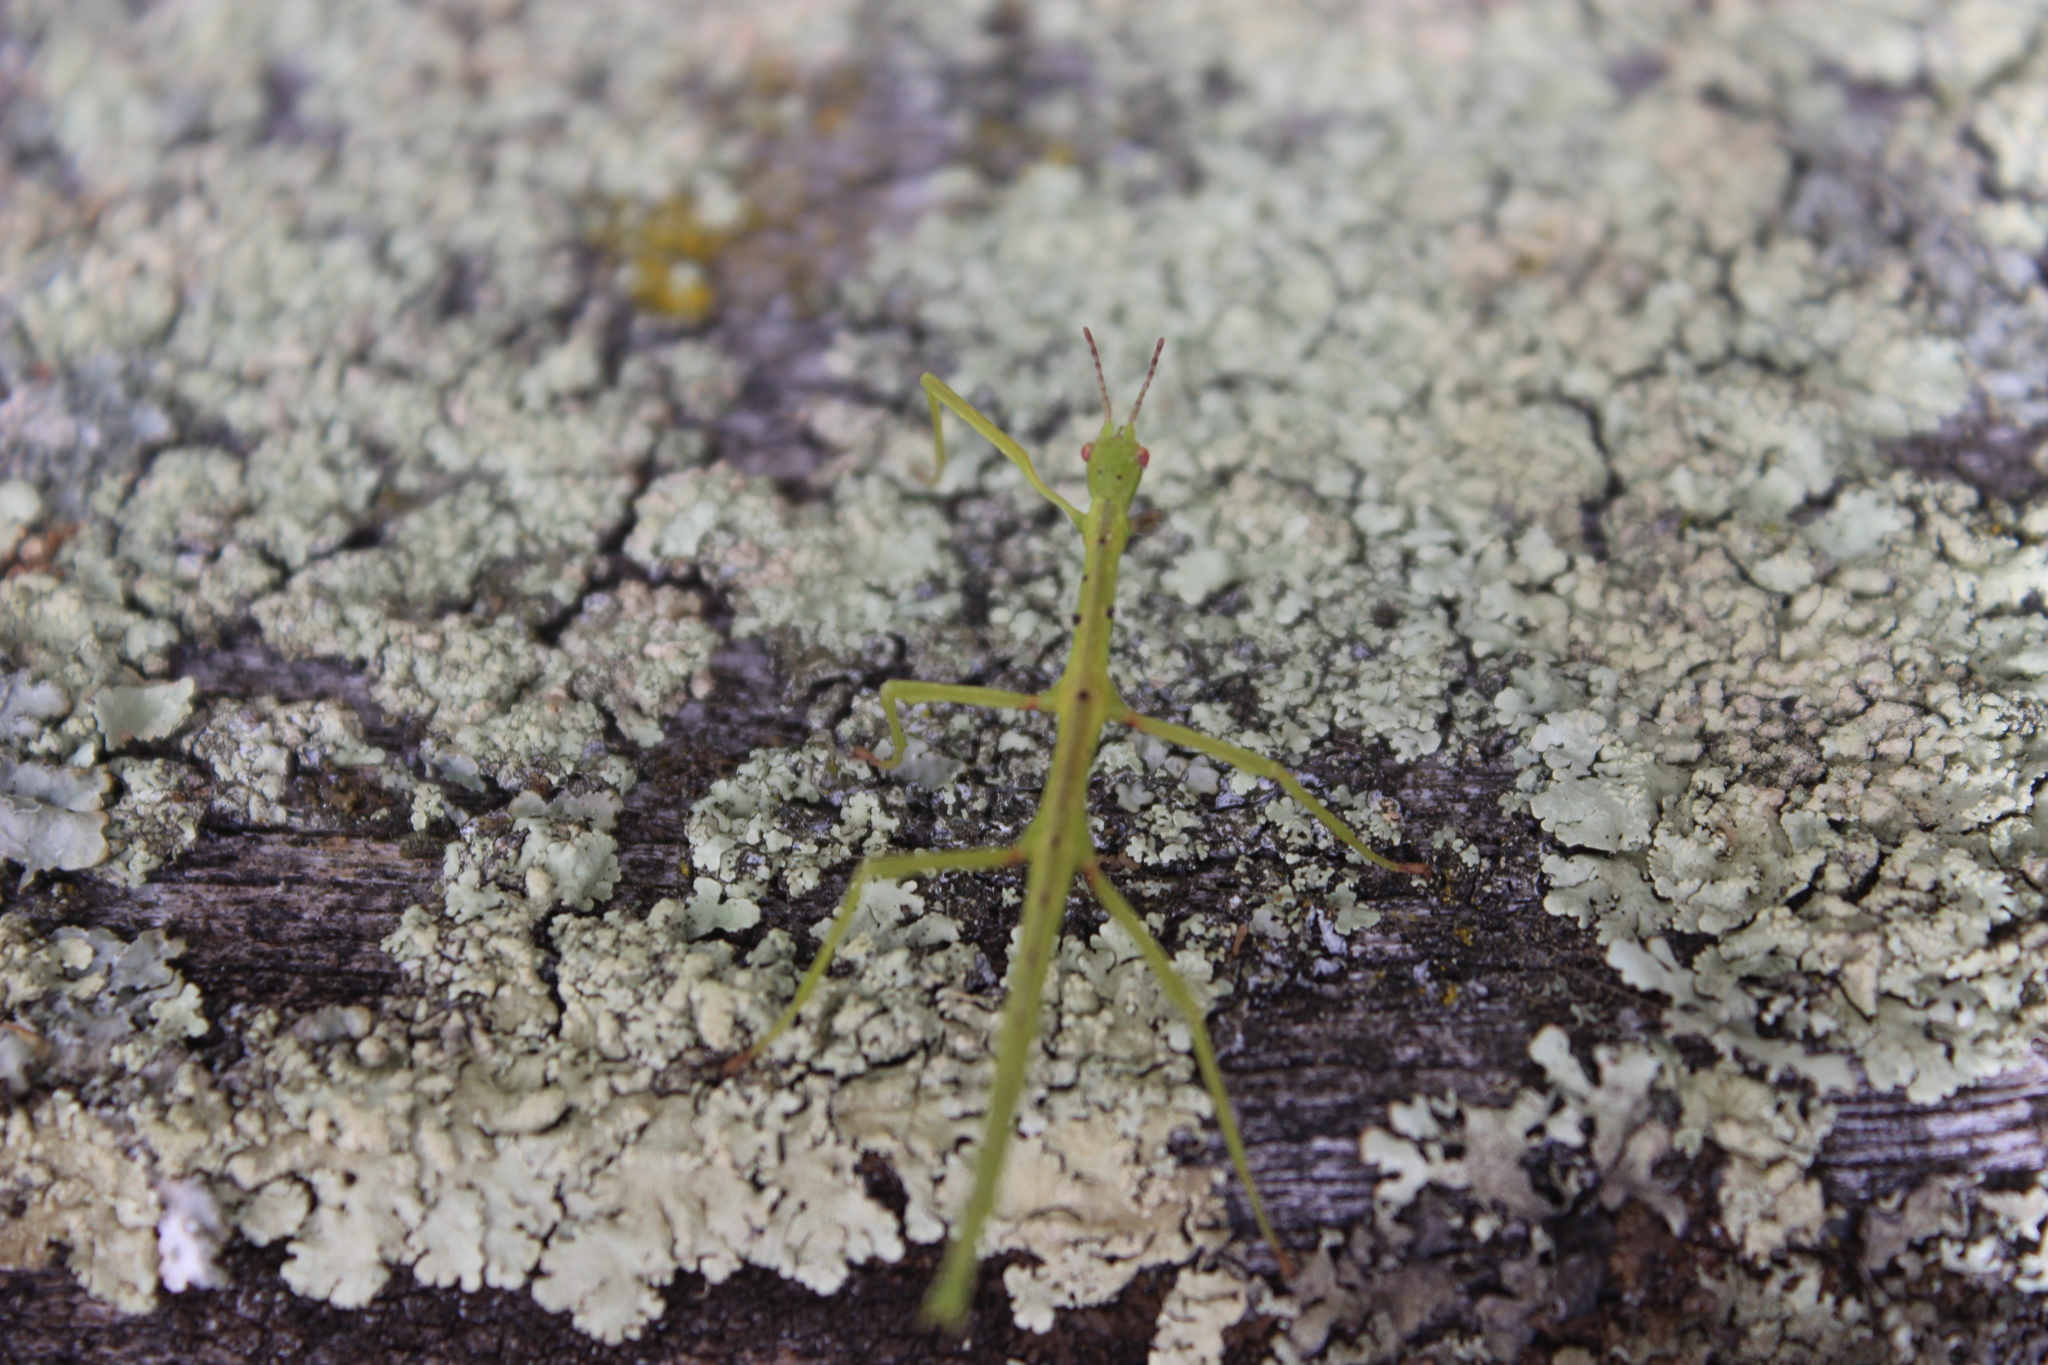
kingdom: Animalia
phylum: Arthropoda
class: Insecta
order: Phasmida
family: Phasmatidae
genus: Acanthoxyla
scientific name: Acanthoxyla prasina
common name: Black-spined stick insect
